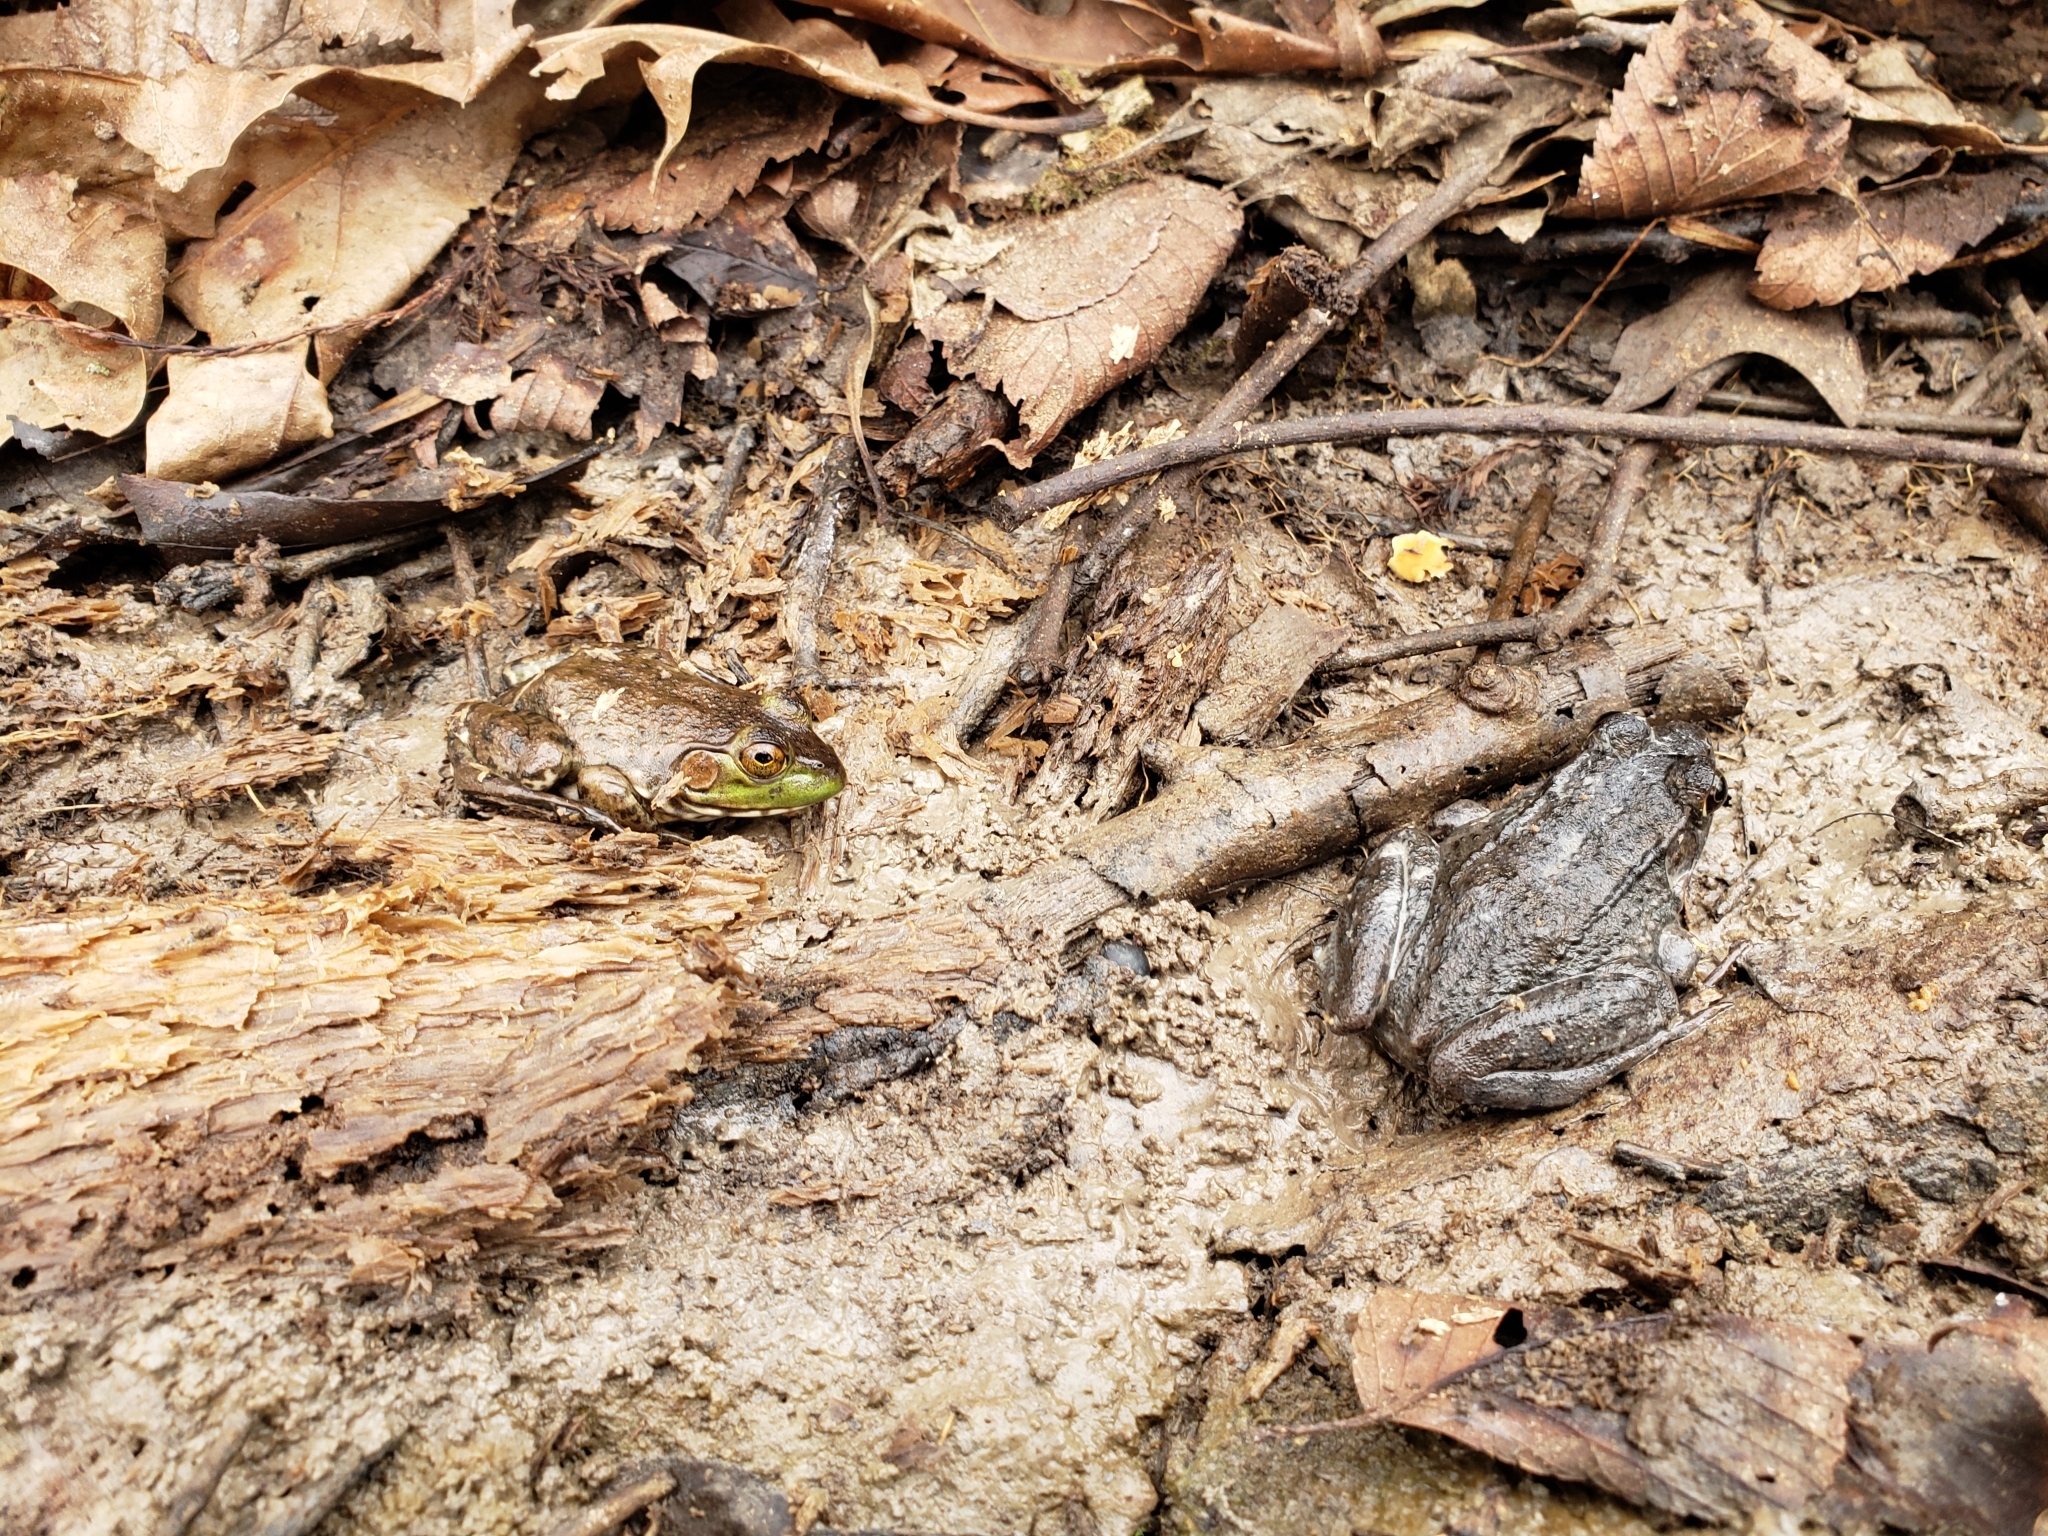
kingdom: Animalia
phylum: Chordata
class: Amphibia
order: Anura
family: Ranidae
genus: Lithobates
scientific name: Lithobates clamitans
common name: Green frog
